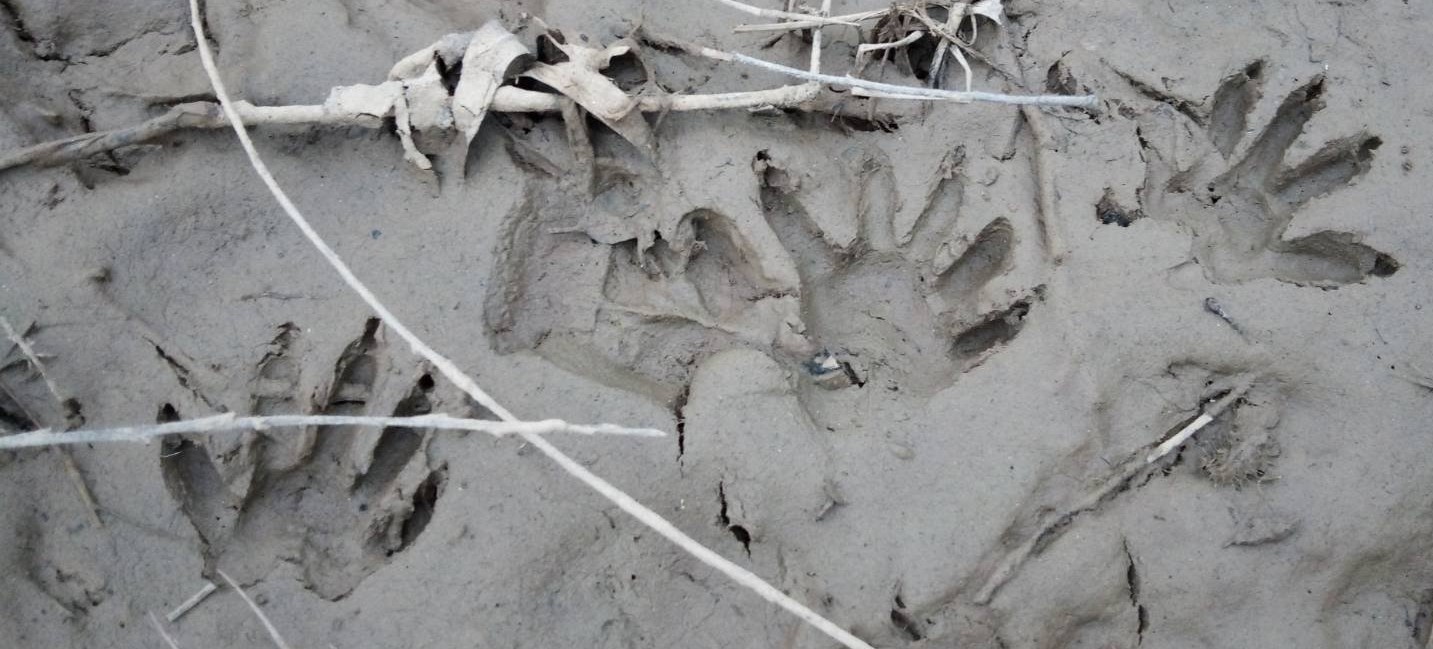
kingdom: Animalia
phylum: Chordata
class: Mammalia
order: Carnivora
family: Procyonidae
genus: Procyon
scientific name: Procyon lotor
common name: Raccoon
